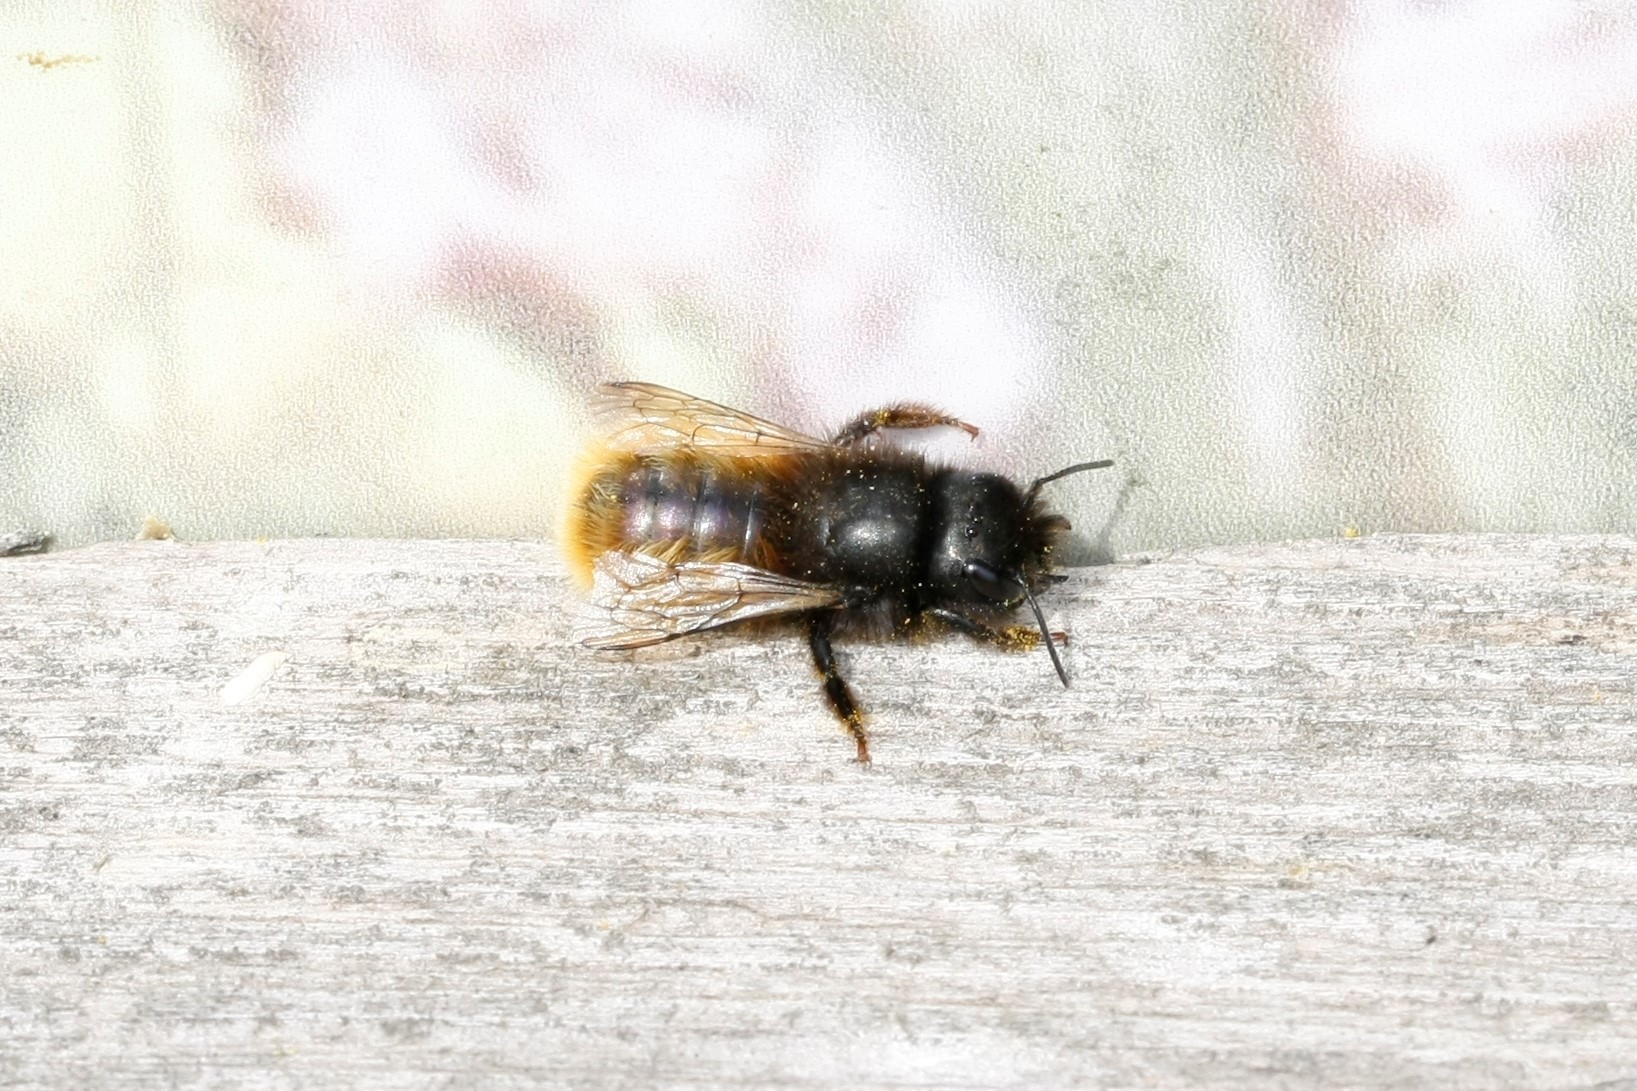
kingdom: Animalia
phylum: Arthropoda
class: Insecta
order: Hymenoptera
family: Megachilidae
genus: Osmia
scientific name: Osmia cornuta
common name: Mason bee
